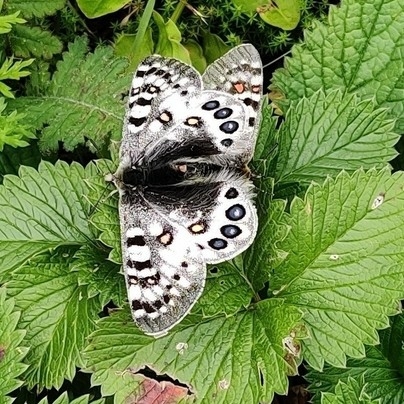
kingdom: Animalia
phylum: Arthropoda
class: Insecta
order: Lepidoptera
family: Papilionidae
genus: Parnassius
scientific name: Parnassius hardwickii
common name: Common blue apollo
